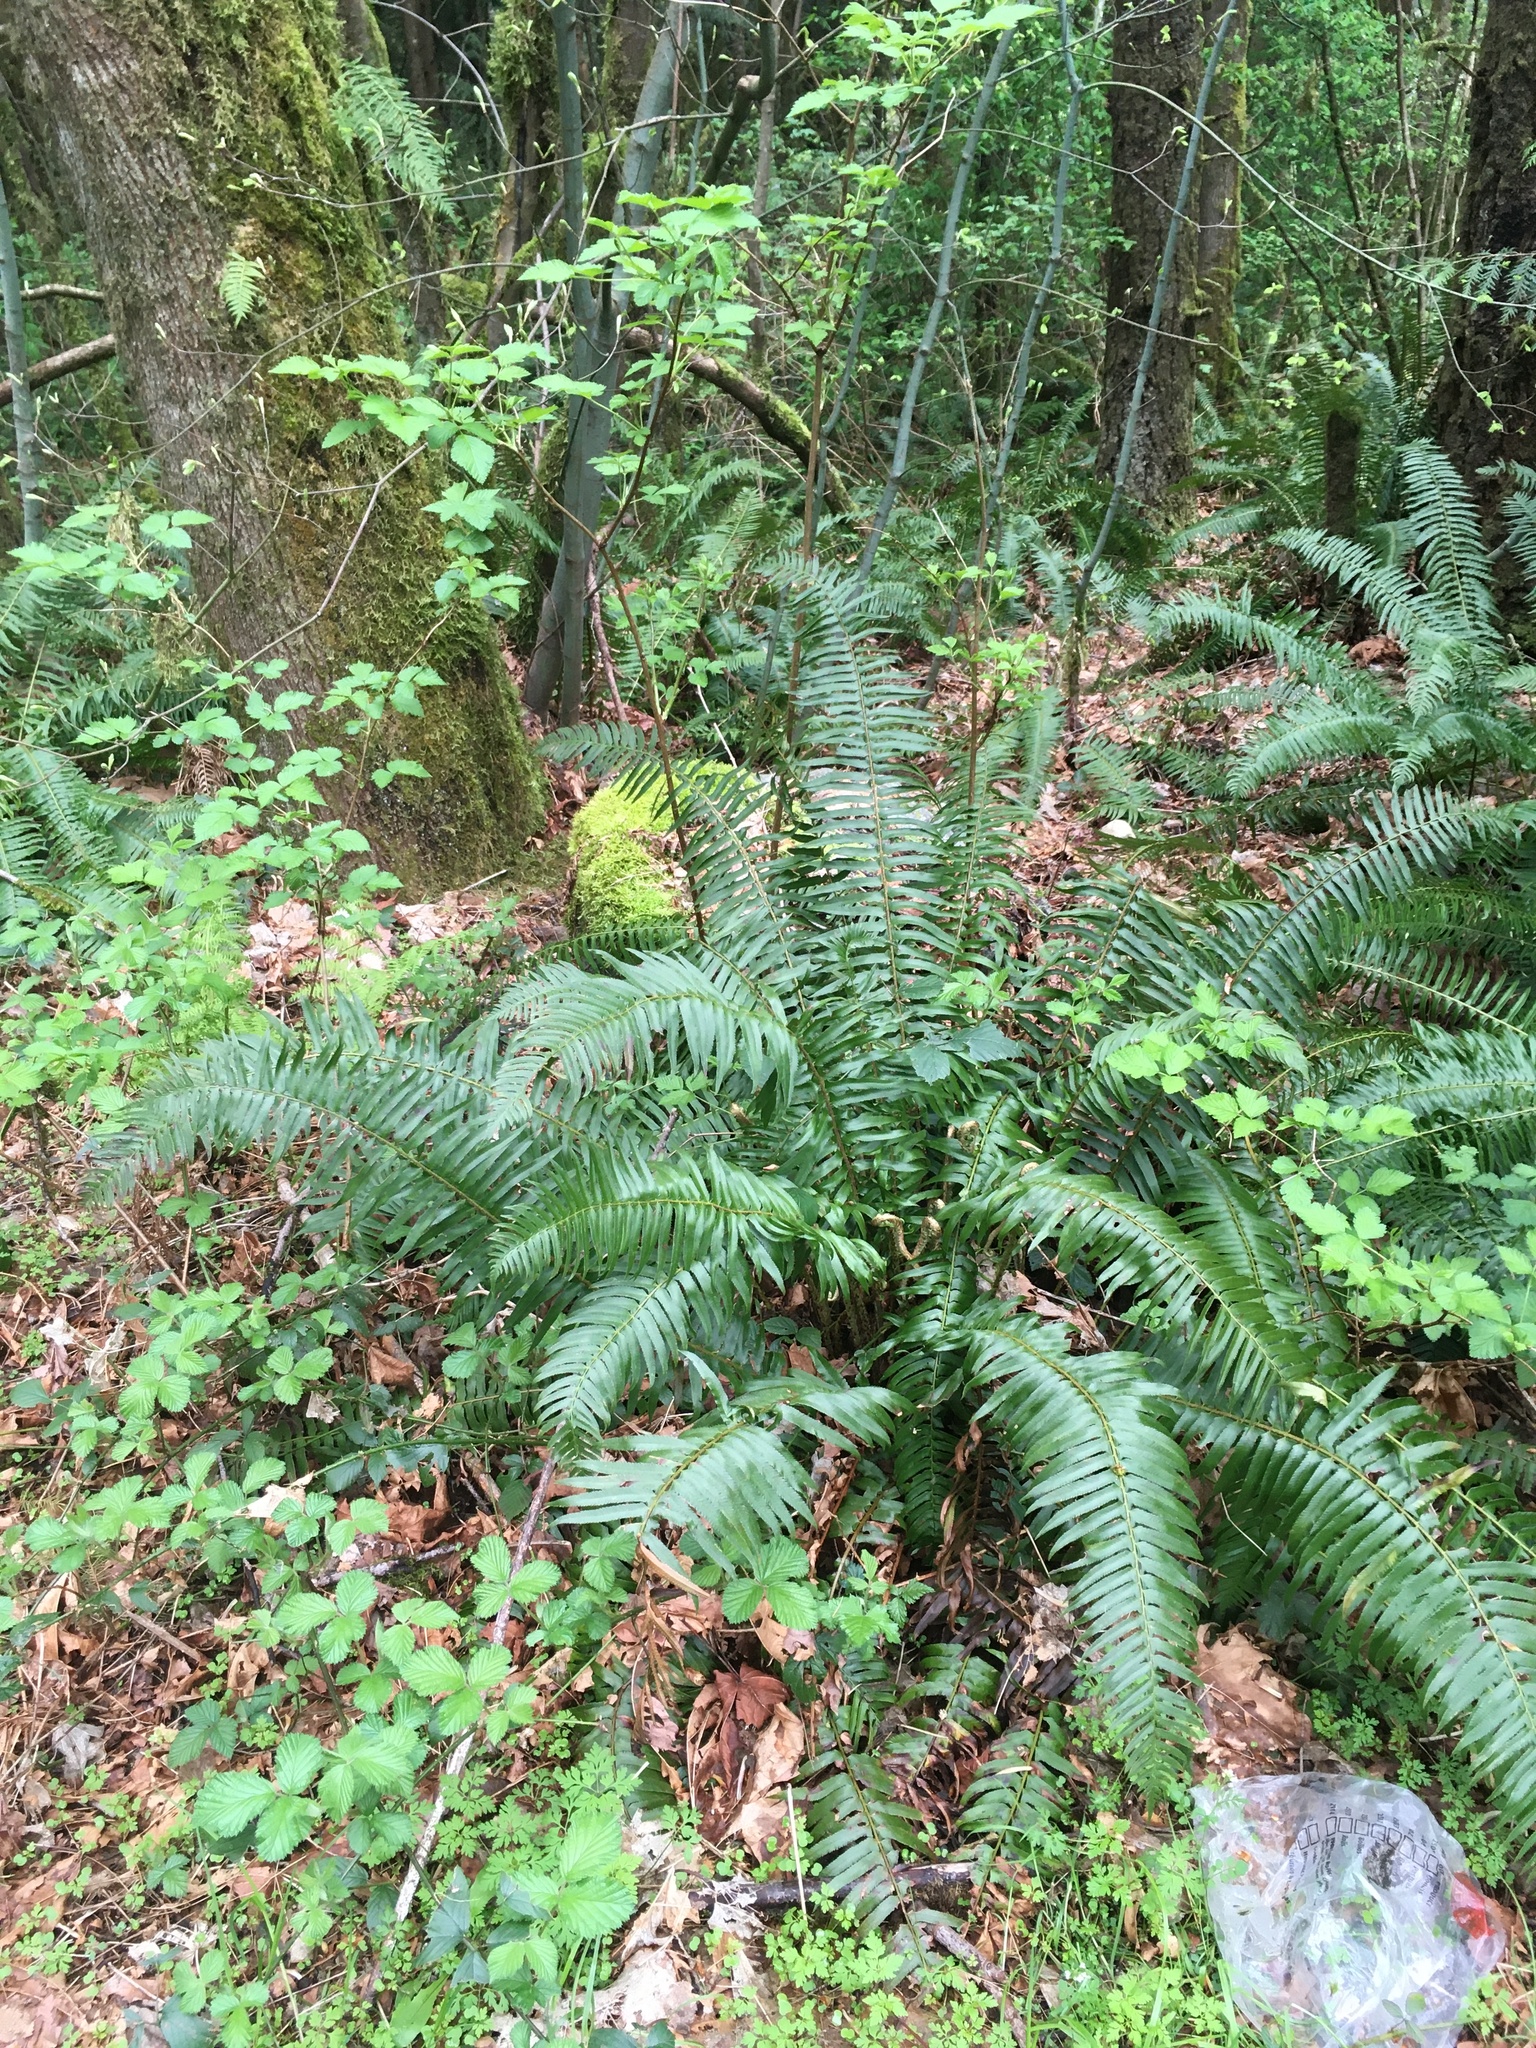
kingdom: Plantae
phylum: Tracheophyta
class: Polypodiopsida
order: Polypodiales
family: Dryopteridaceae
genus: Polystichum
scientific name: Polystichum munitum
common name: Western sword-fern
